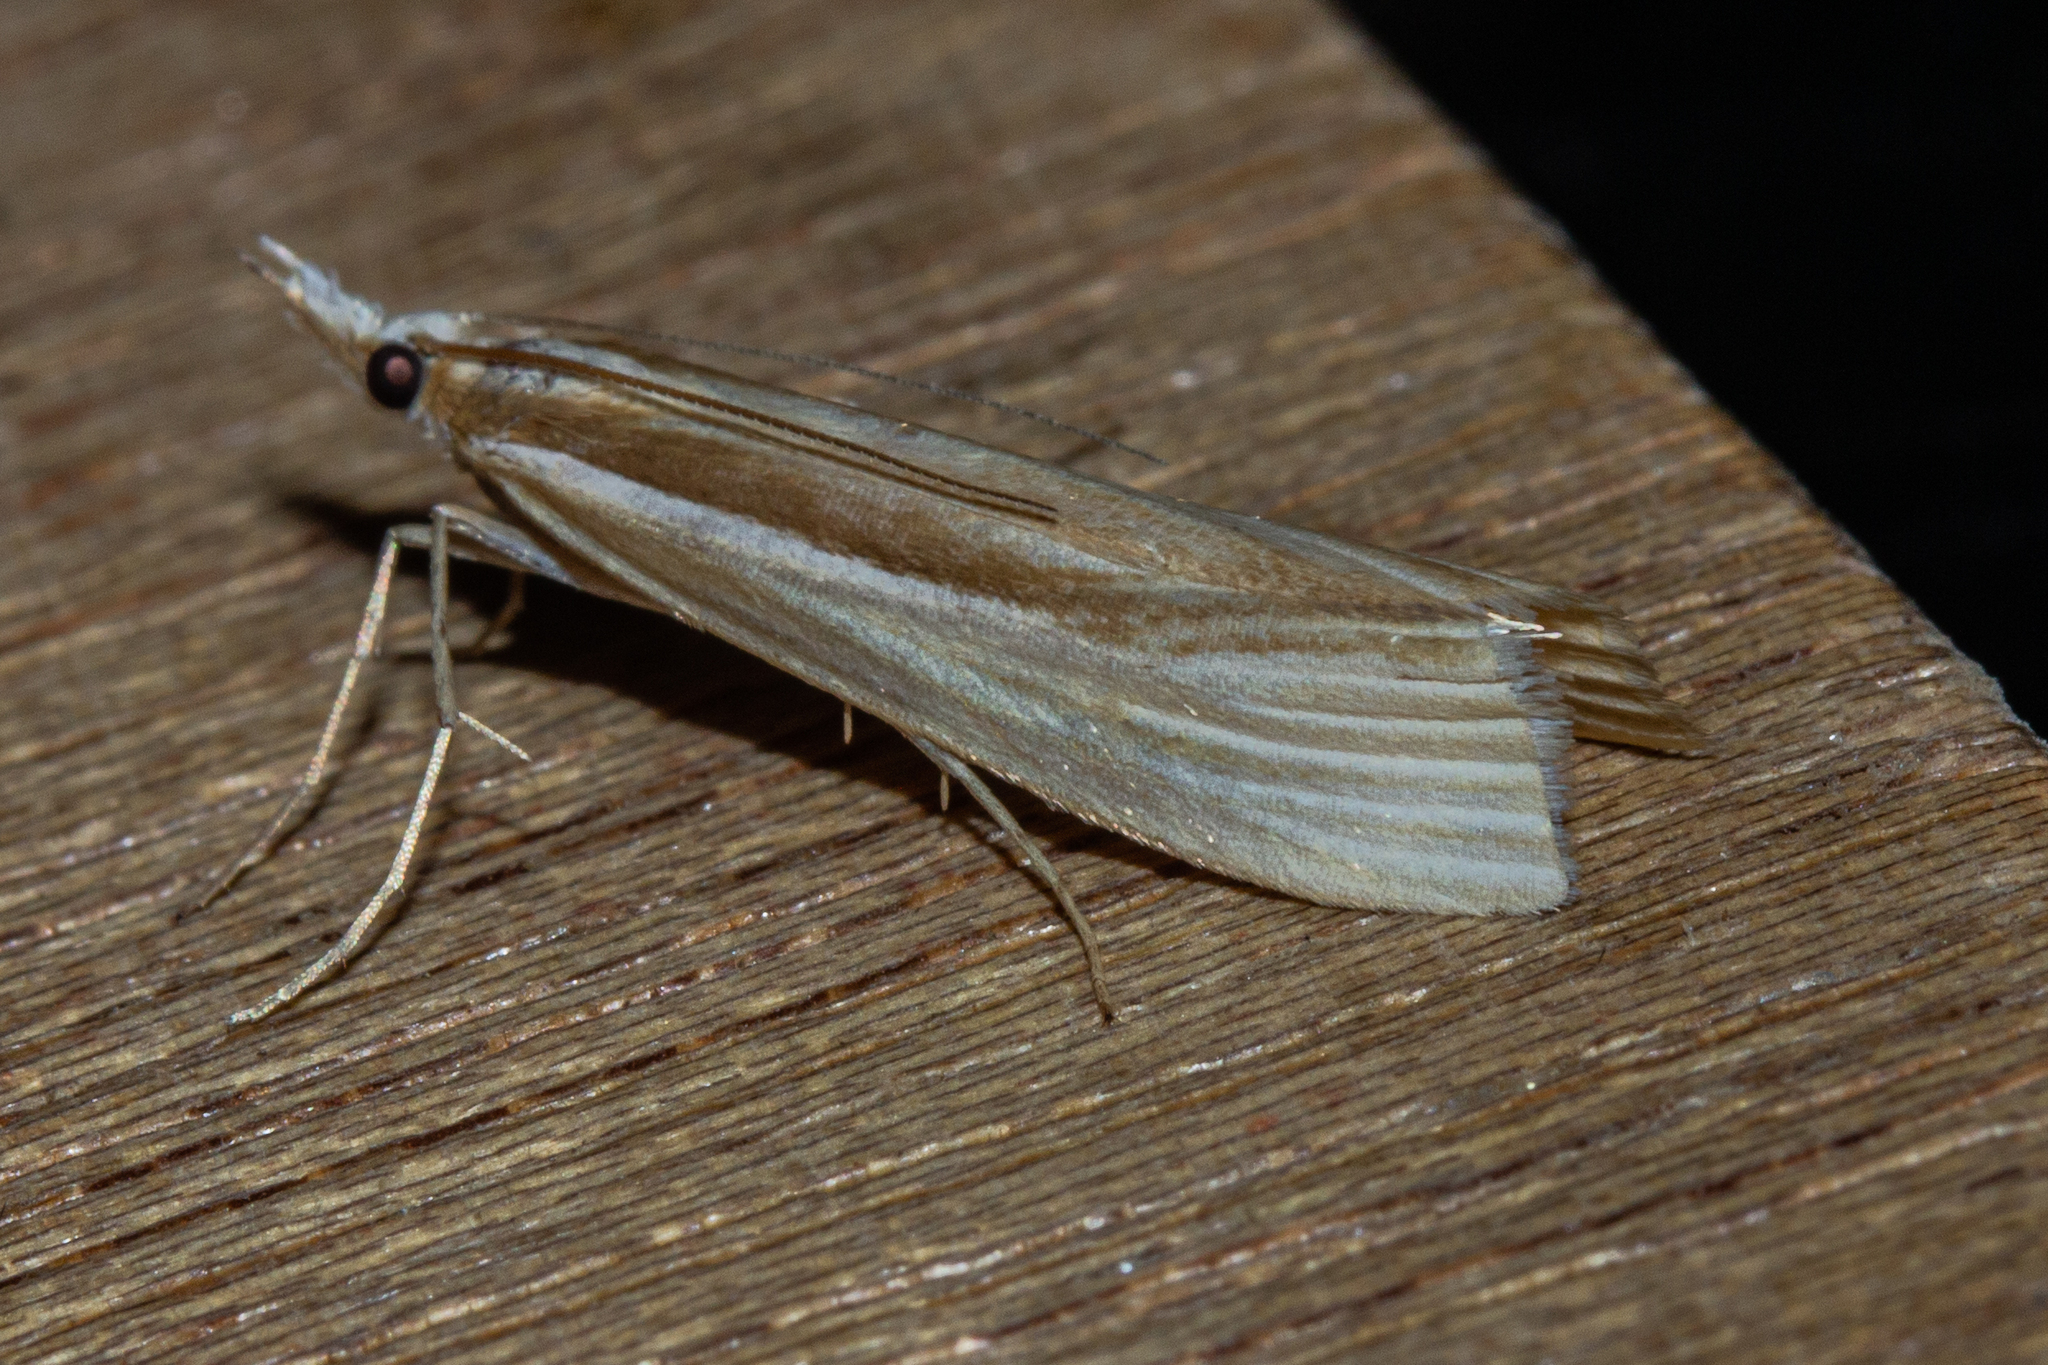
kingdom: Animalia
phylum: Arthropoda
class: Insecta
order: Lepidoptera
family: Crambidae
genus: Orocrambus
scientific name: Orocrambus ramosellus
